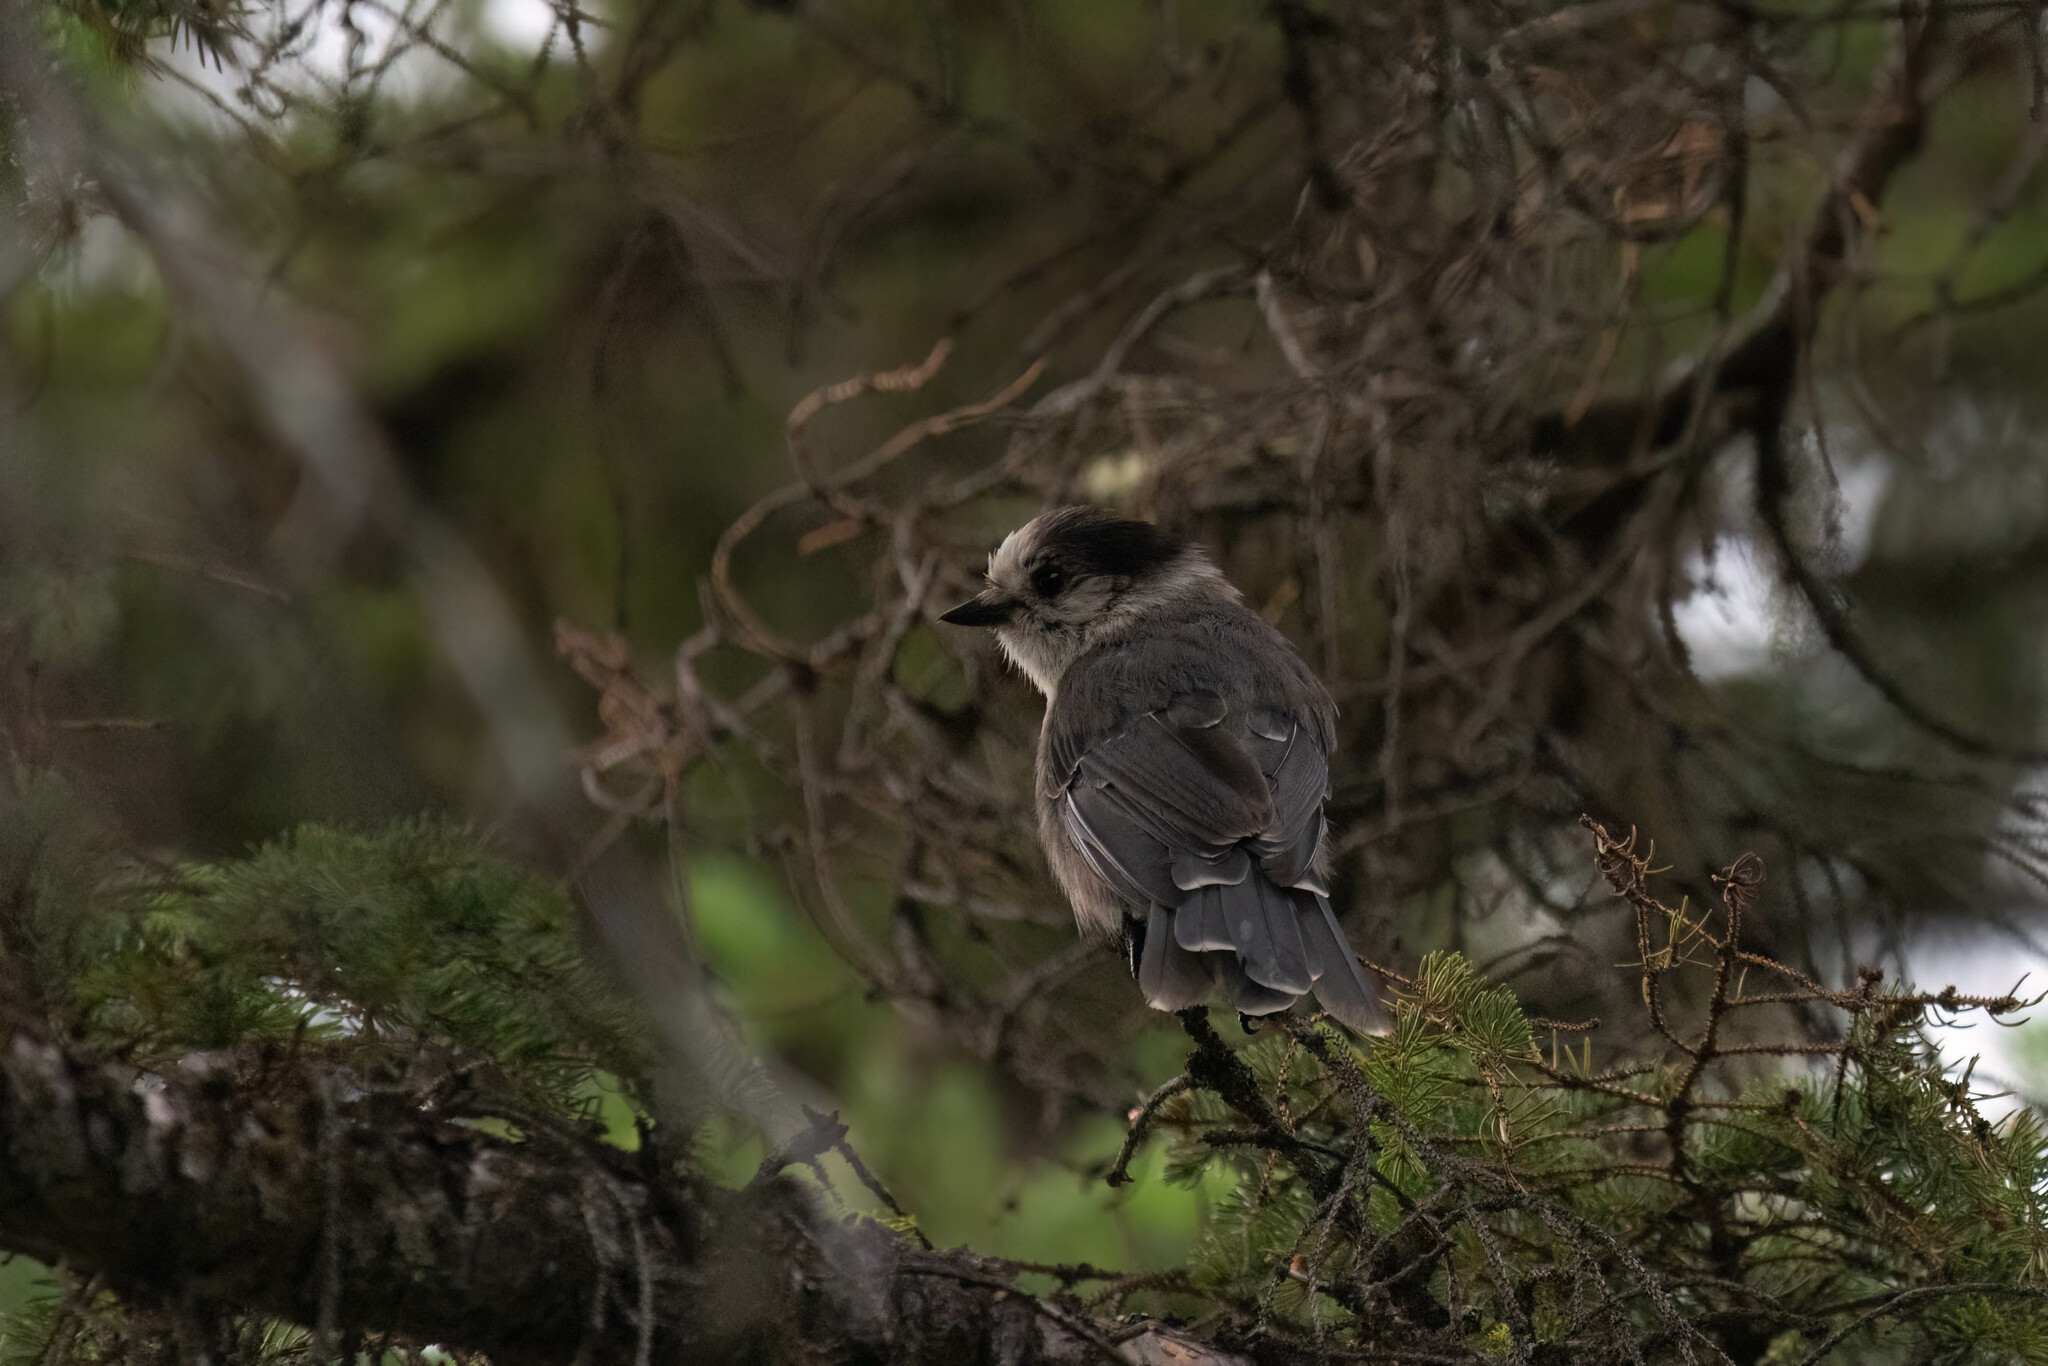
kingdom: Animalia
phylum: Chordata
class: Aves
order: Passeriformes
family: Corvidae
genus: Perisoreus
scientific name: Perisoreus canadensis
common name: Gray jay
